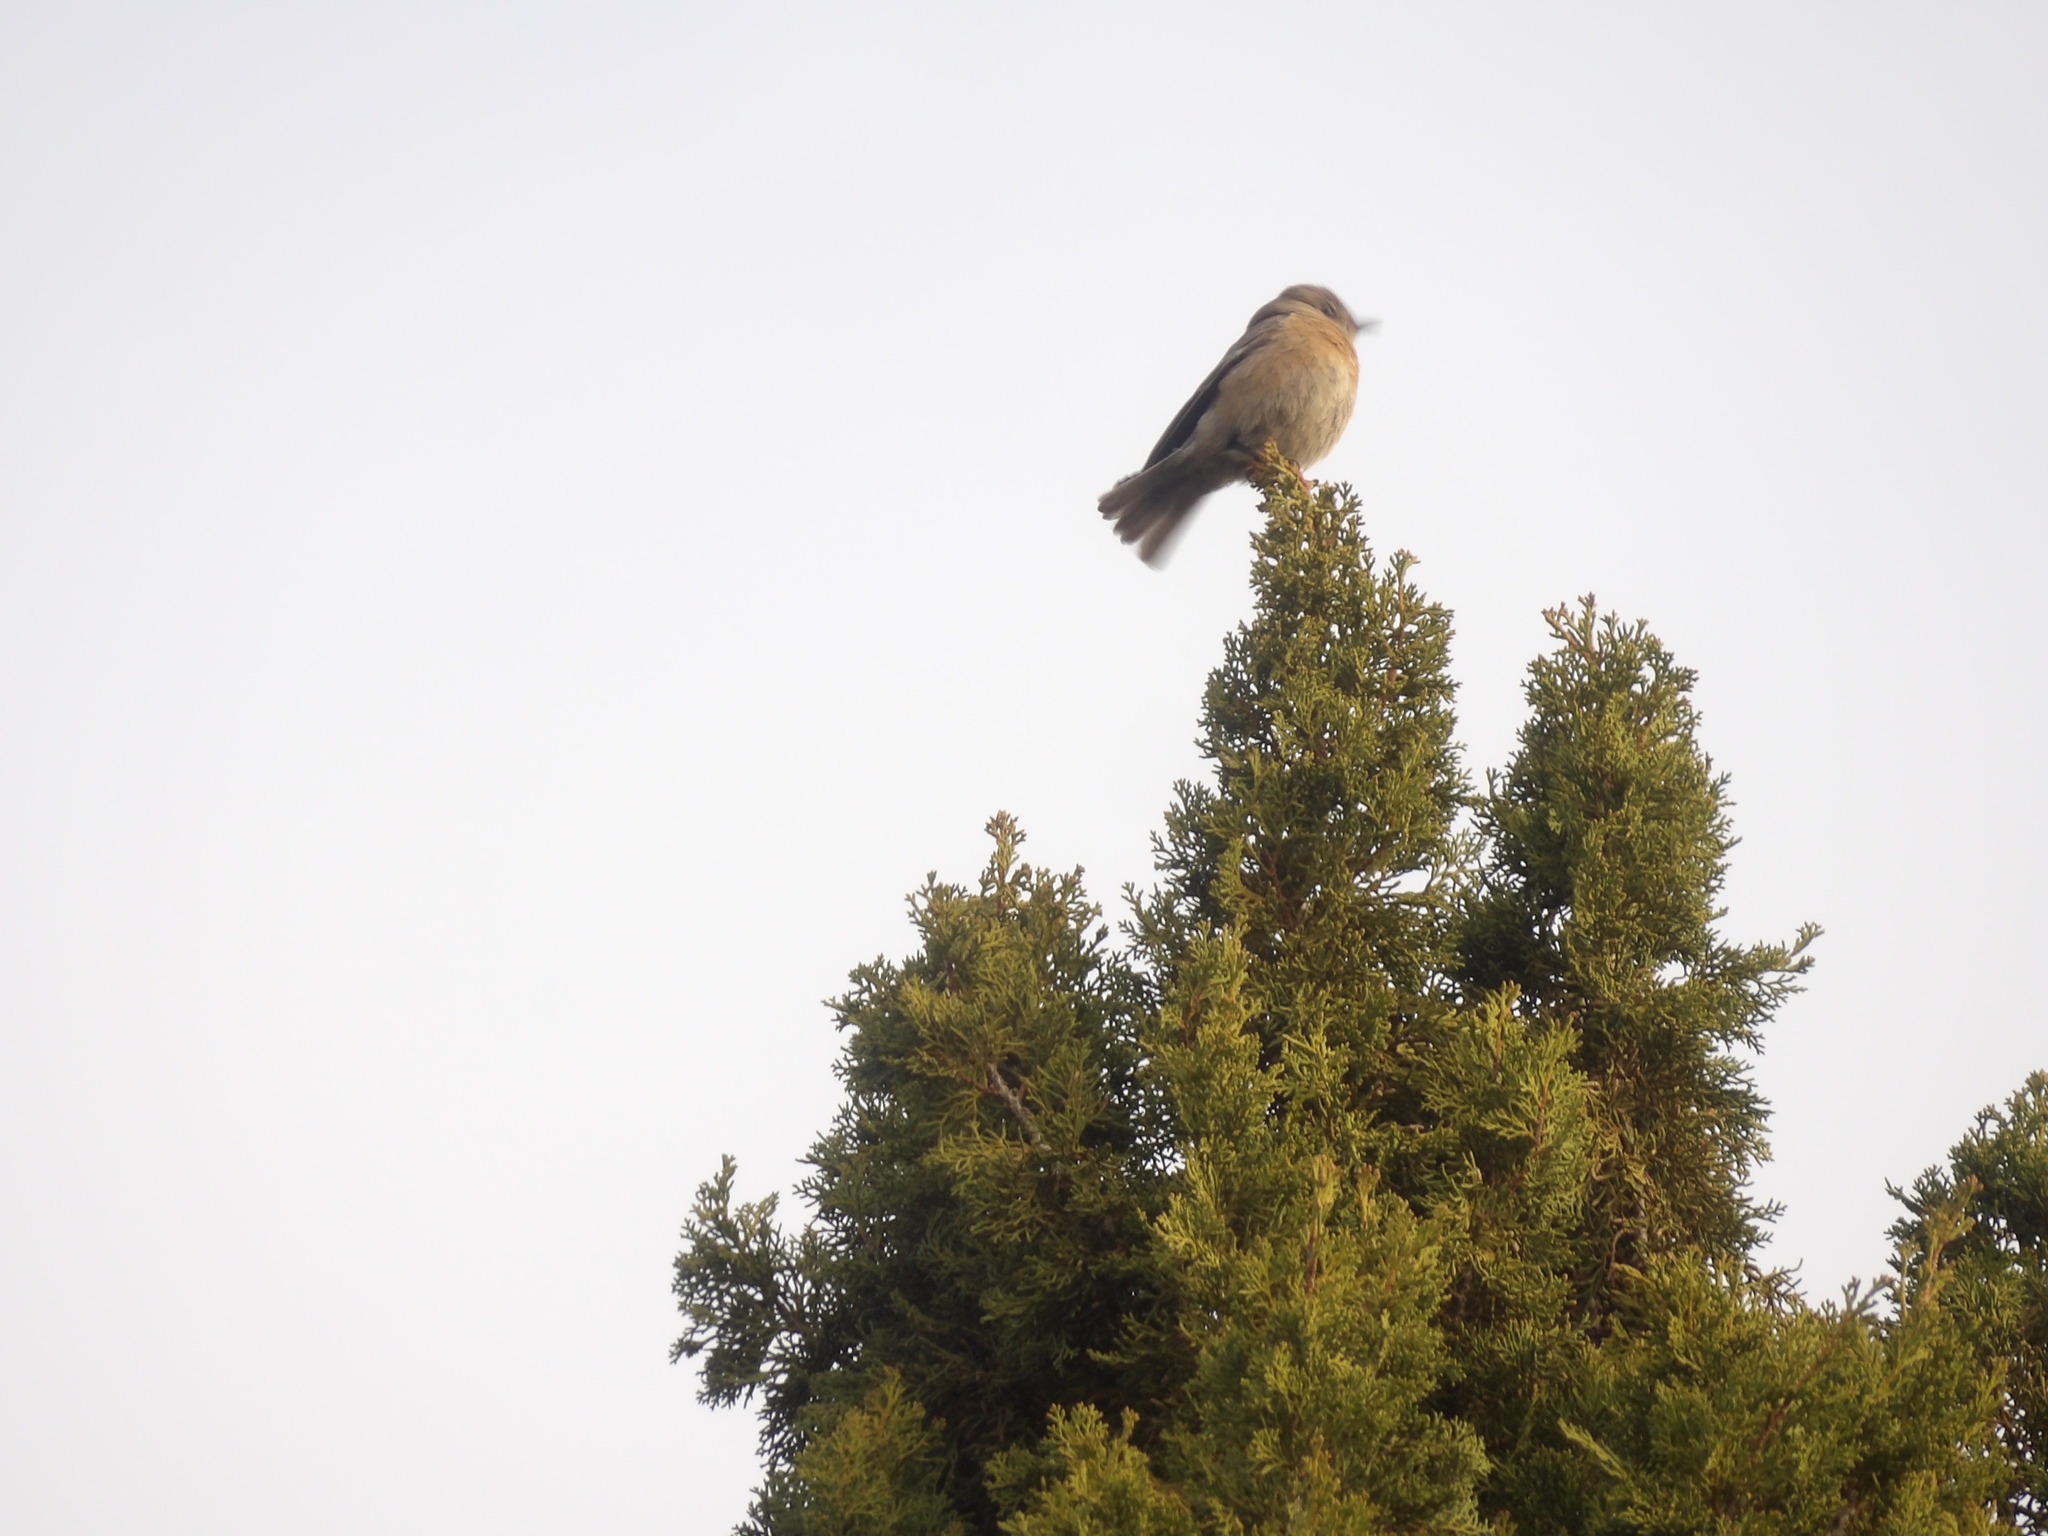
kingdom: Animalia
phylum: Chordata
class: Aves
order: Passeriformes
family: Turdidae
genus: Sialia
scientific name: Sialia mexicana
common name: Western bluebird
